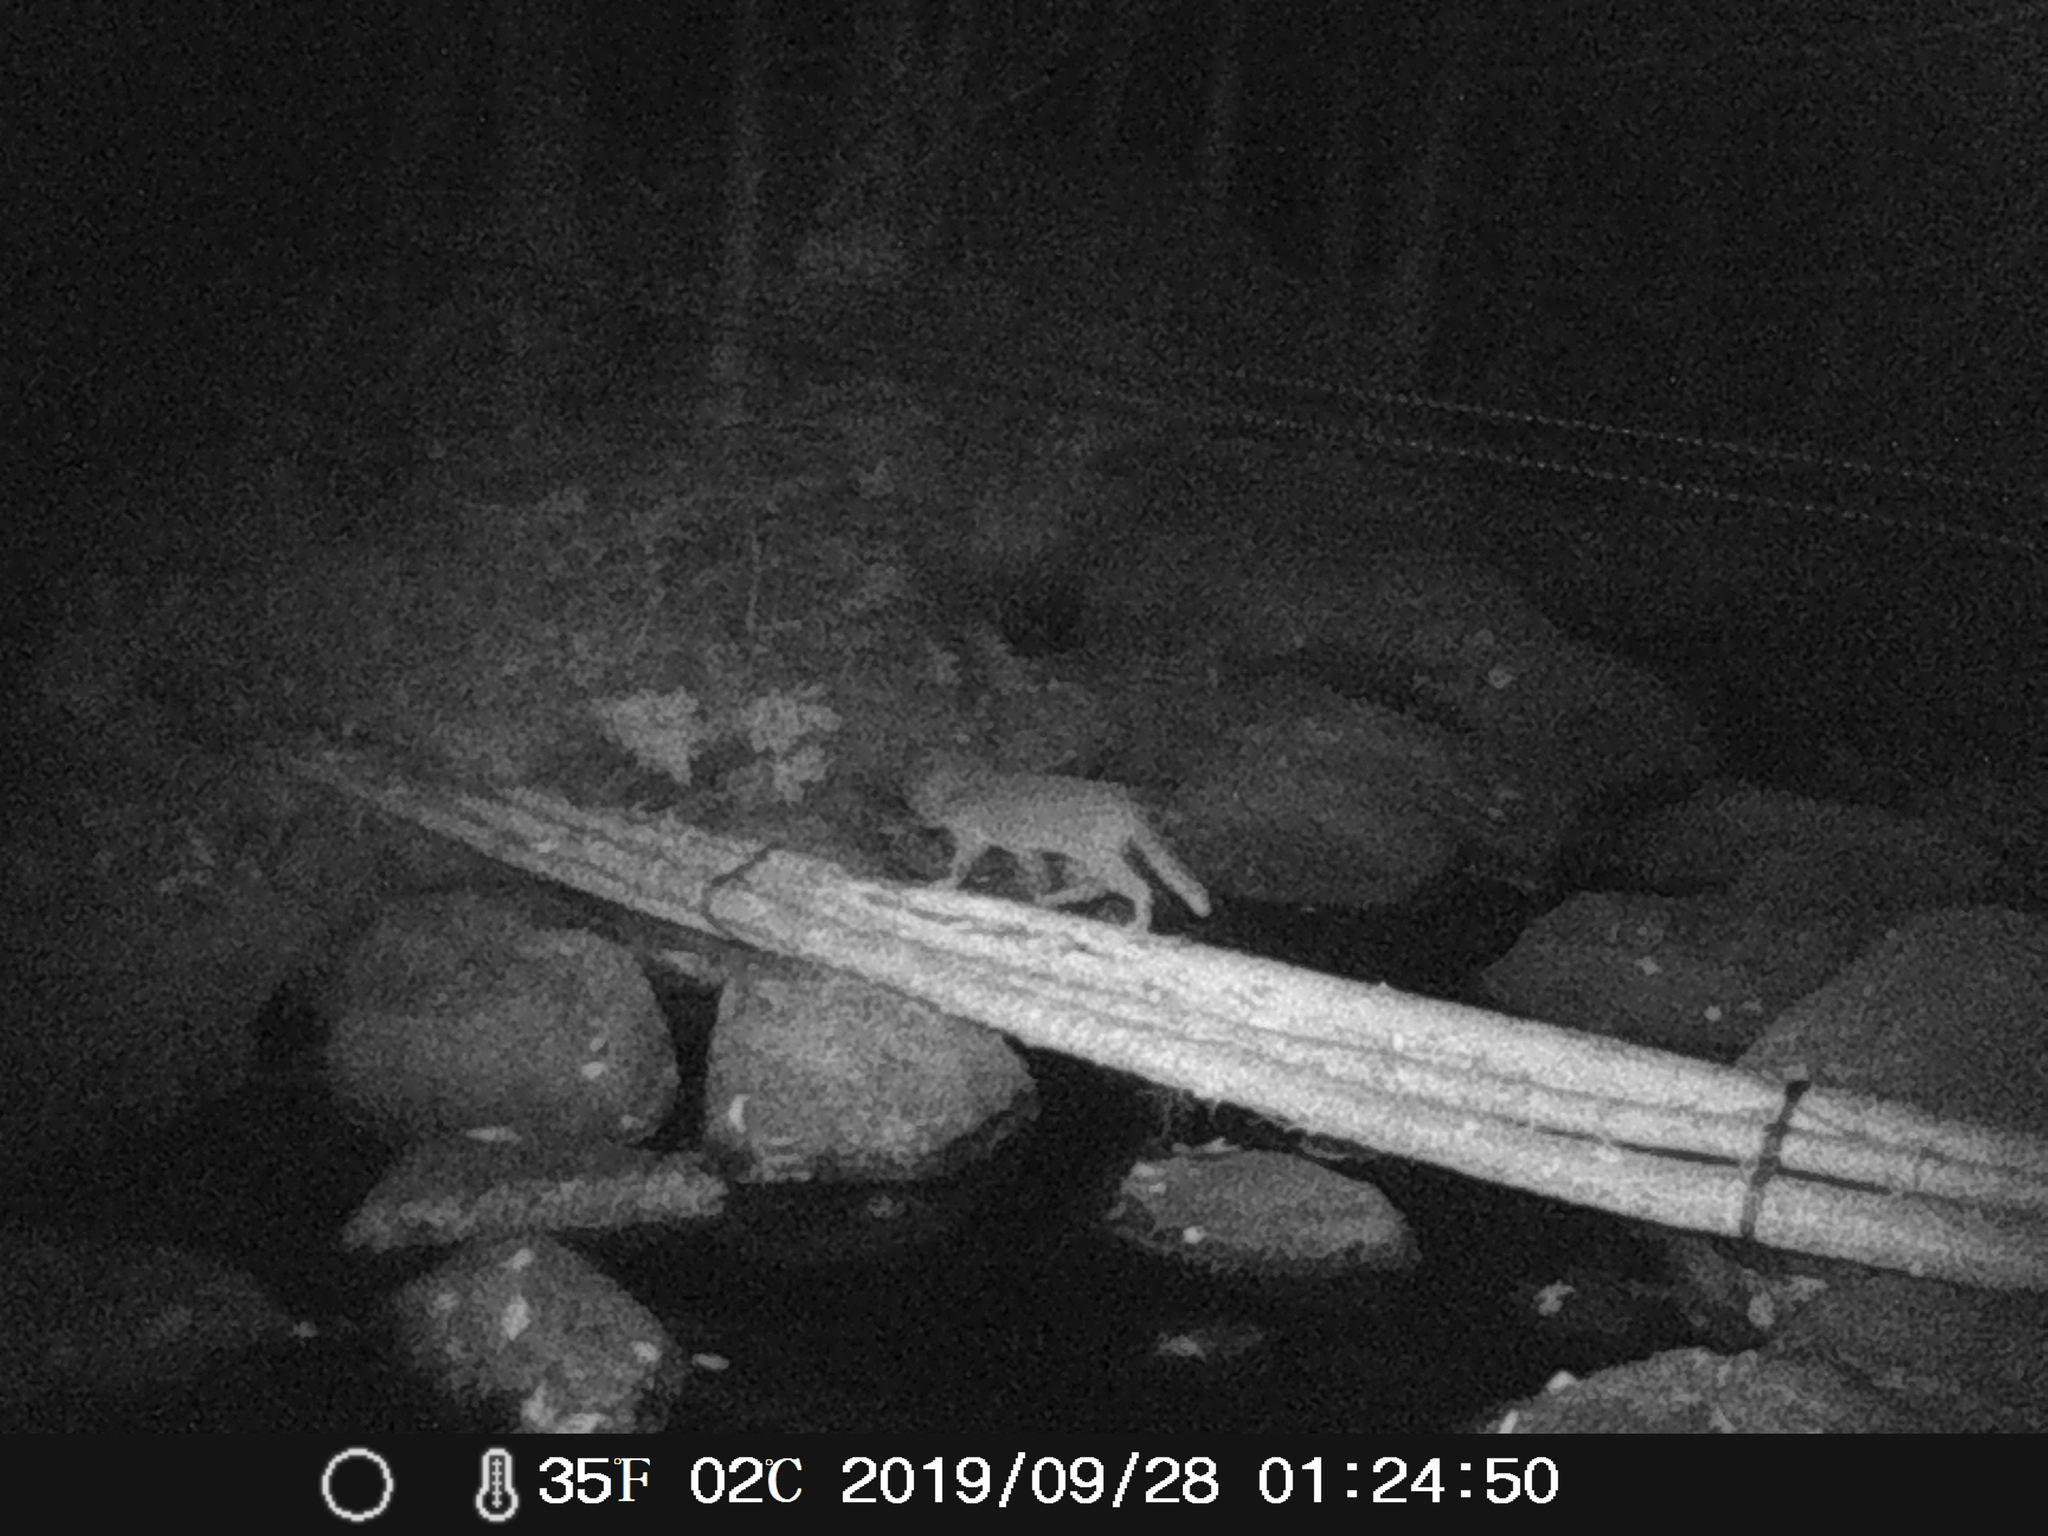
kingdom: Animalia
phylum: Chordata
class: Mammalia
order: Carnivora
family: Felidae
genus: Felis
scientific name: Felis catus
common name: Domestic cat
